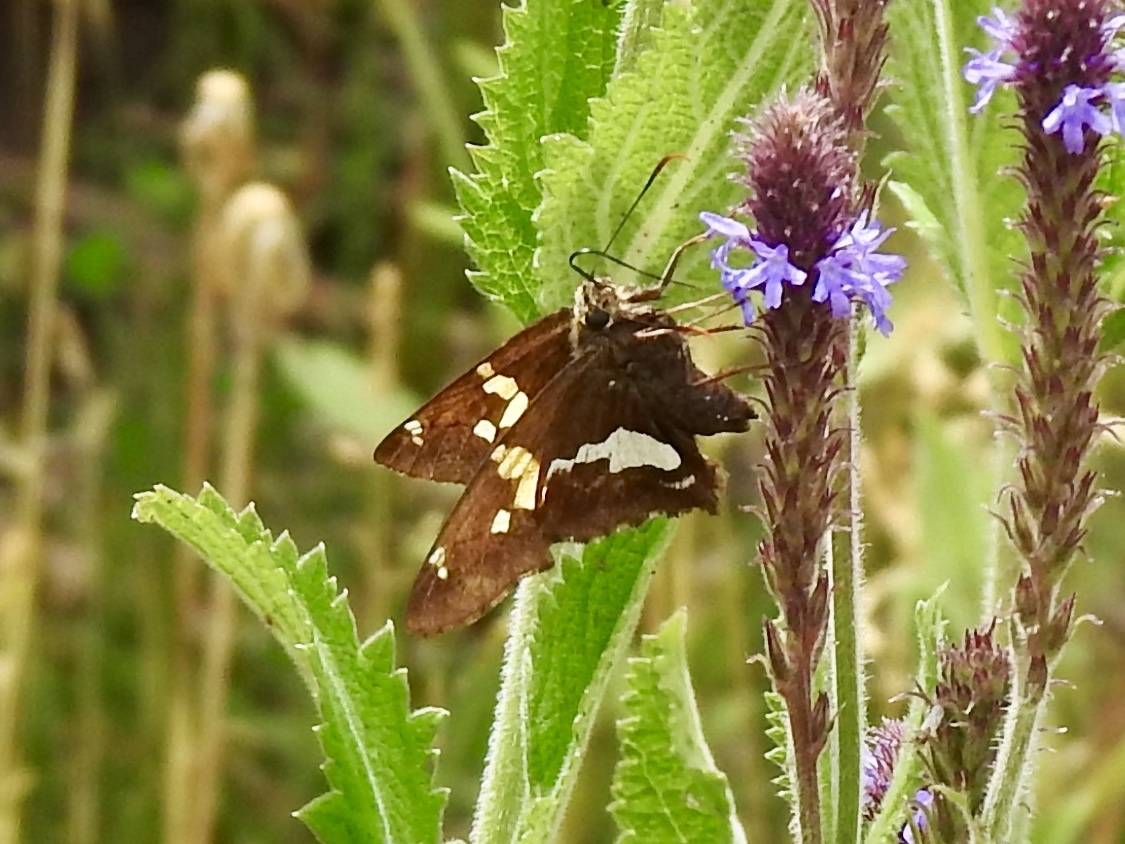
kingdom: Animalia
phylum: Arthropoda
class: Insecta
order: Lepidoptera
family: Hesperiidae
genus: Epargyreus
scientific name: Epargyreus clarus
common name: Silver-spotted skipper
